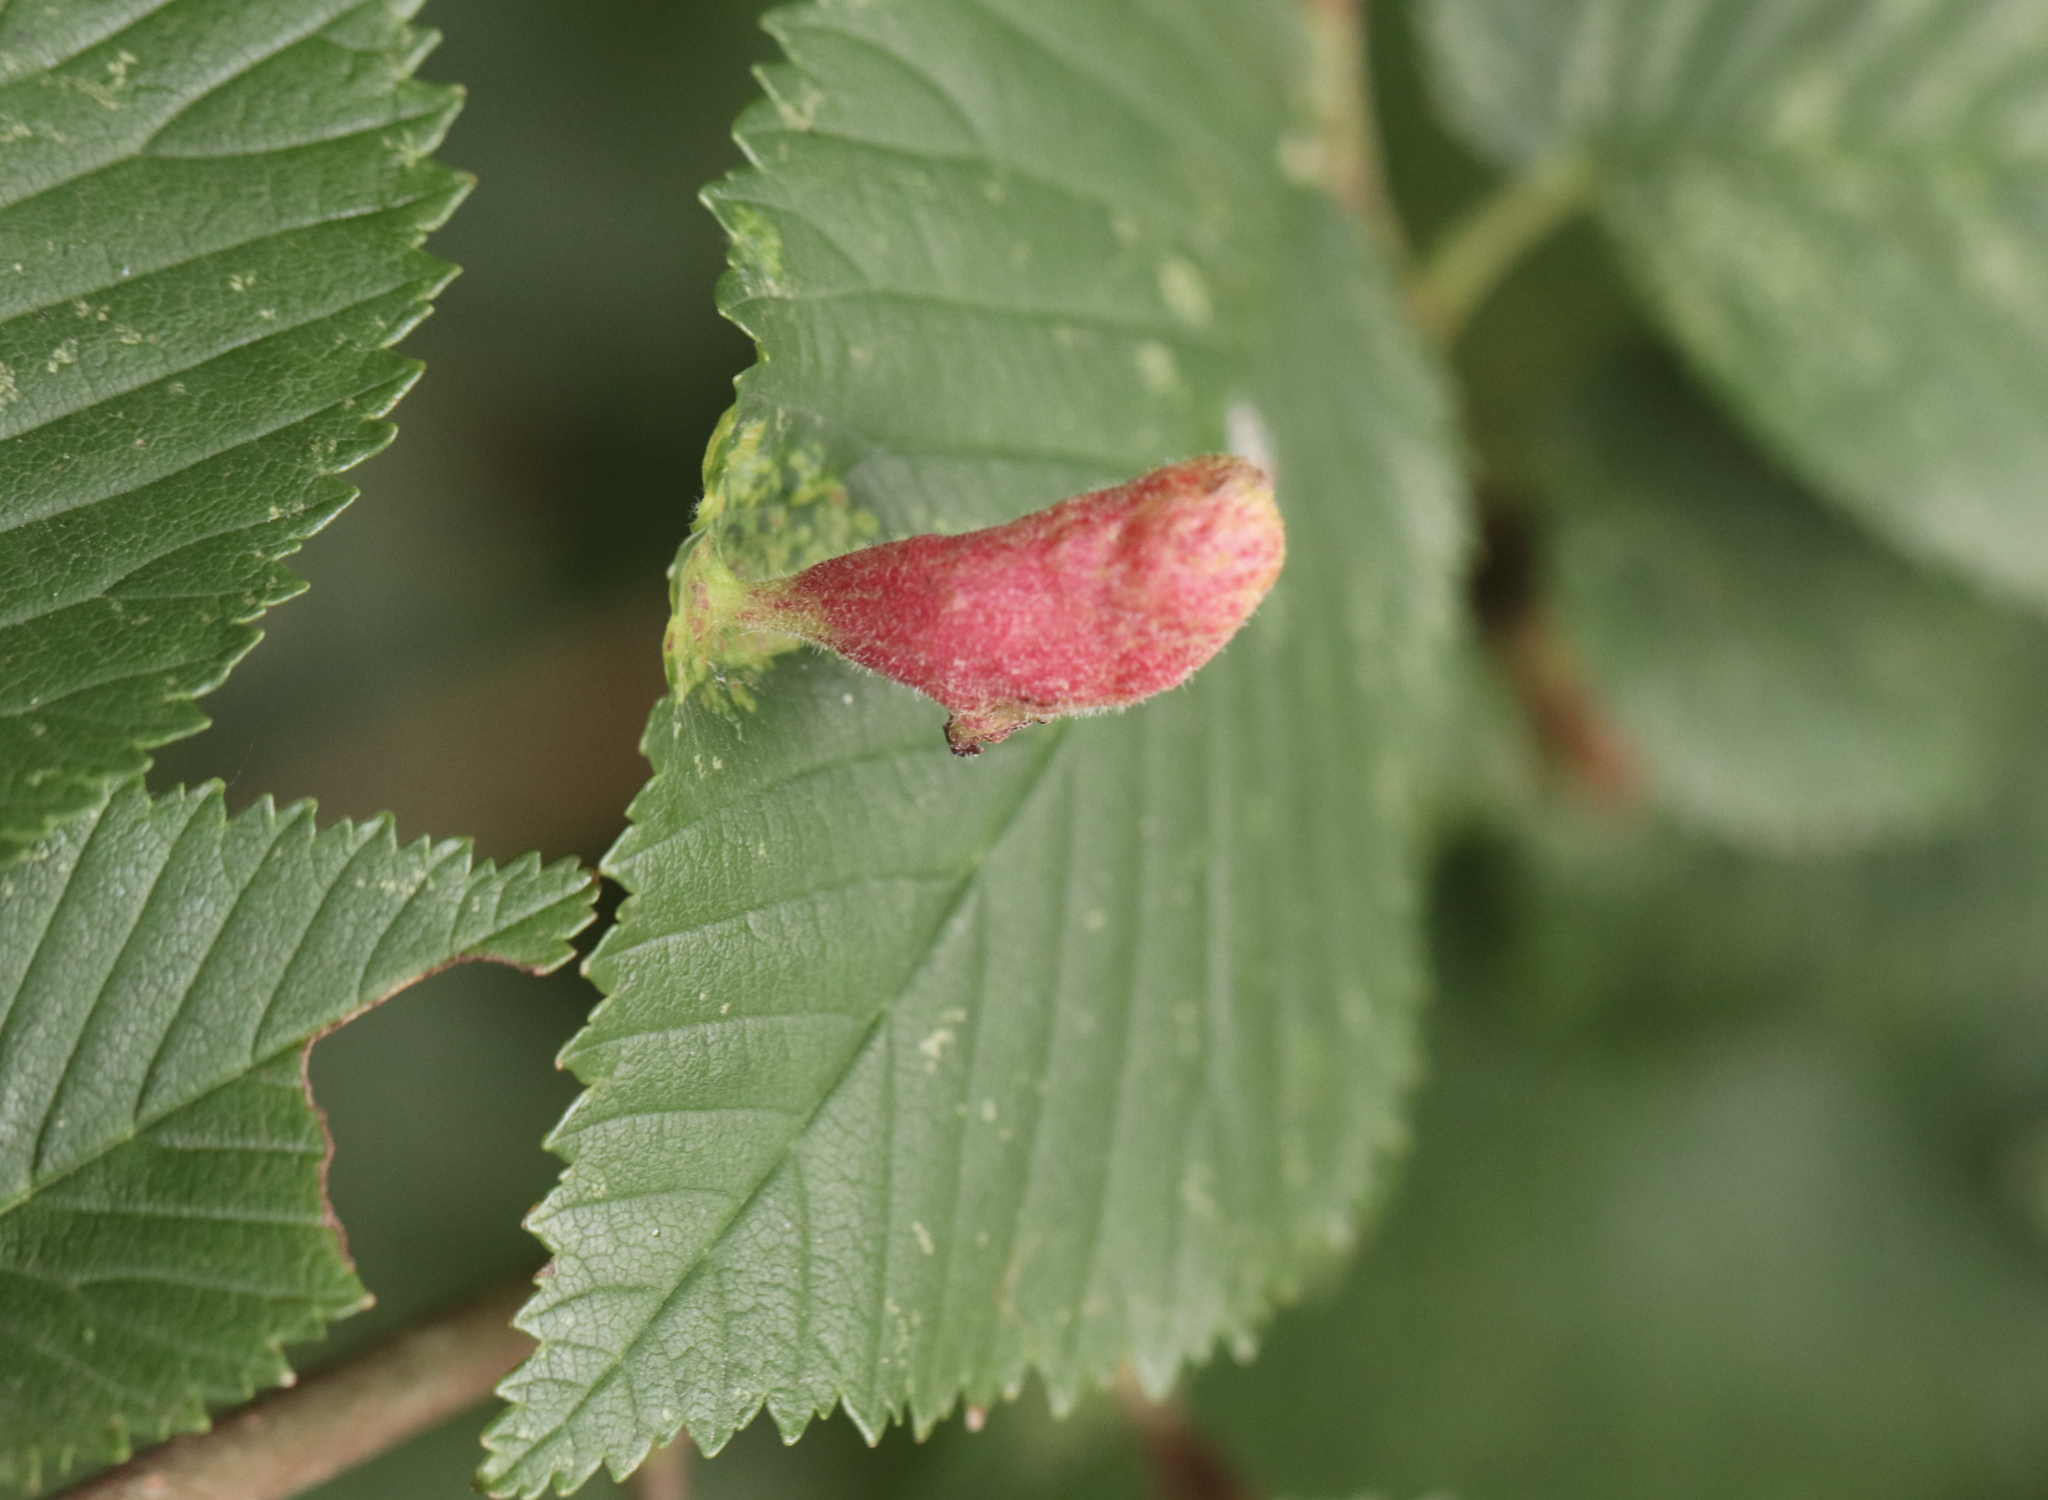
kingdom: Animalia
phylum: Arthropoda
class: Insecta
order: Hemiptera
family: Aphididae
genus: Tetraneura
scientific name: Tetraneura nigriabdominalis
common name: Aphid
